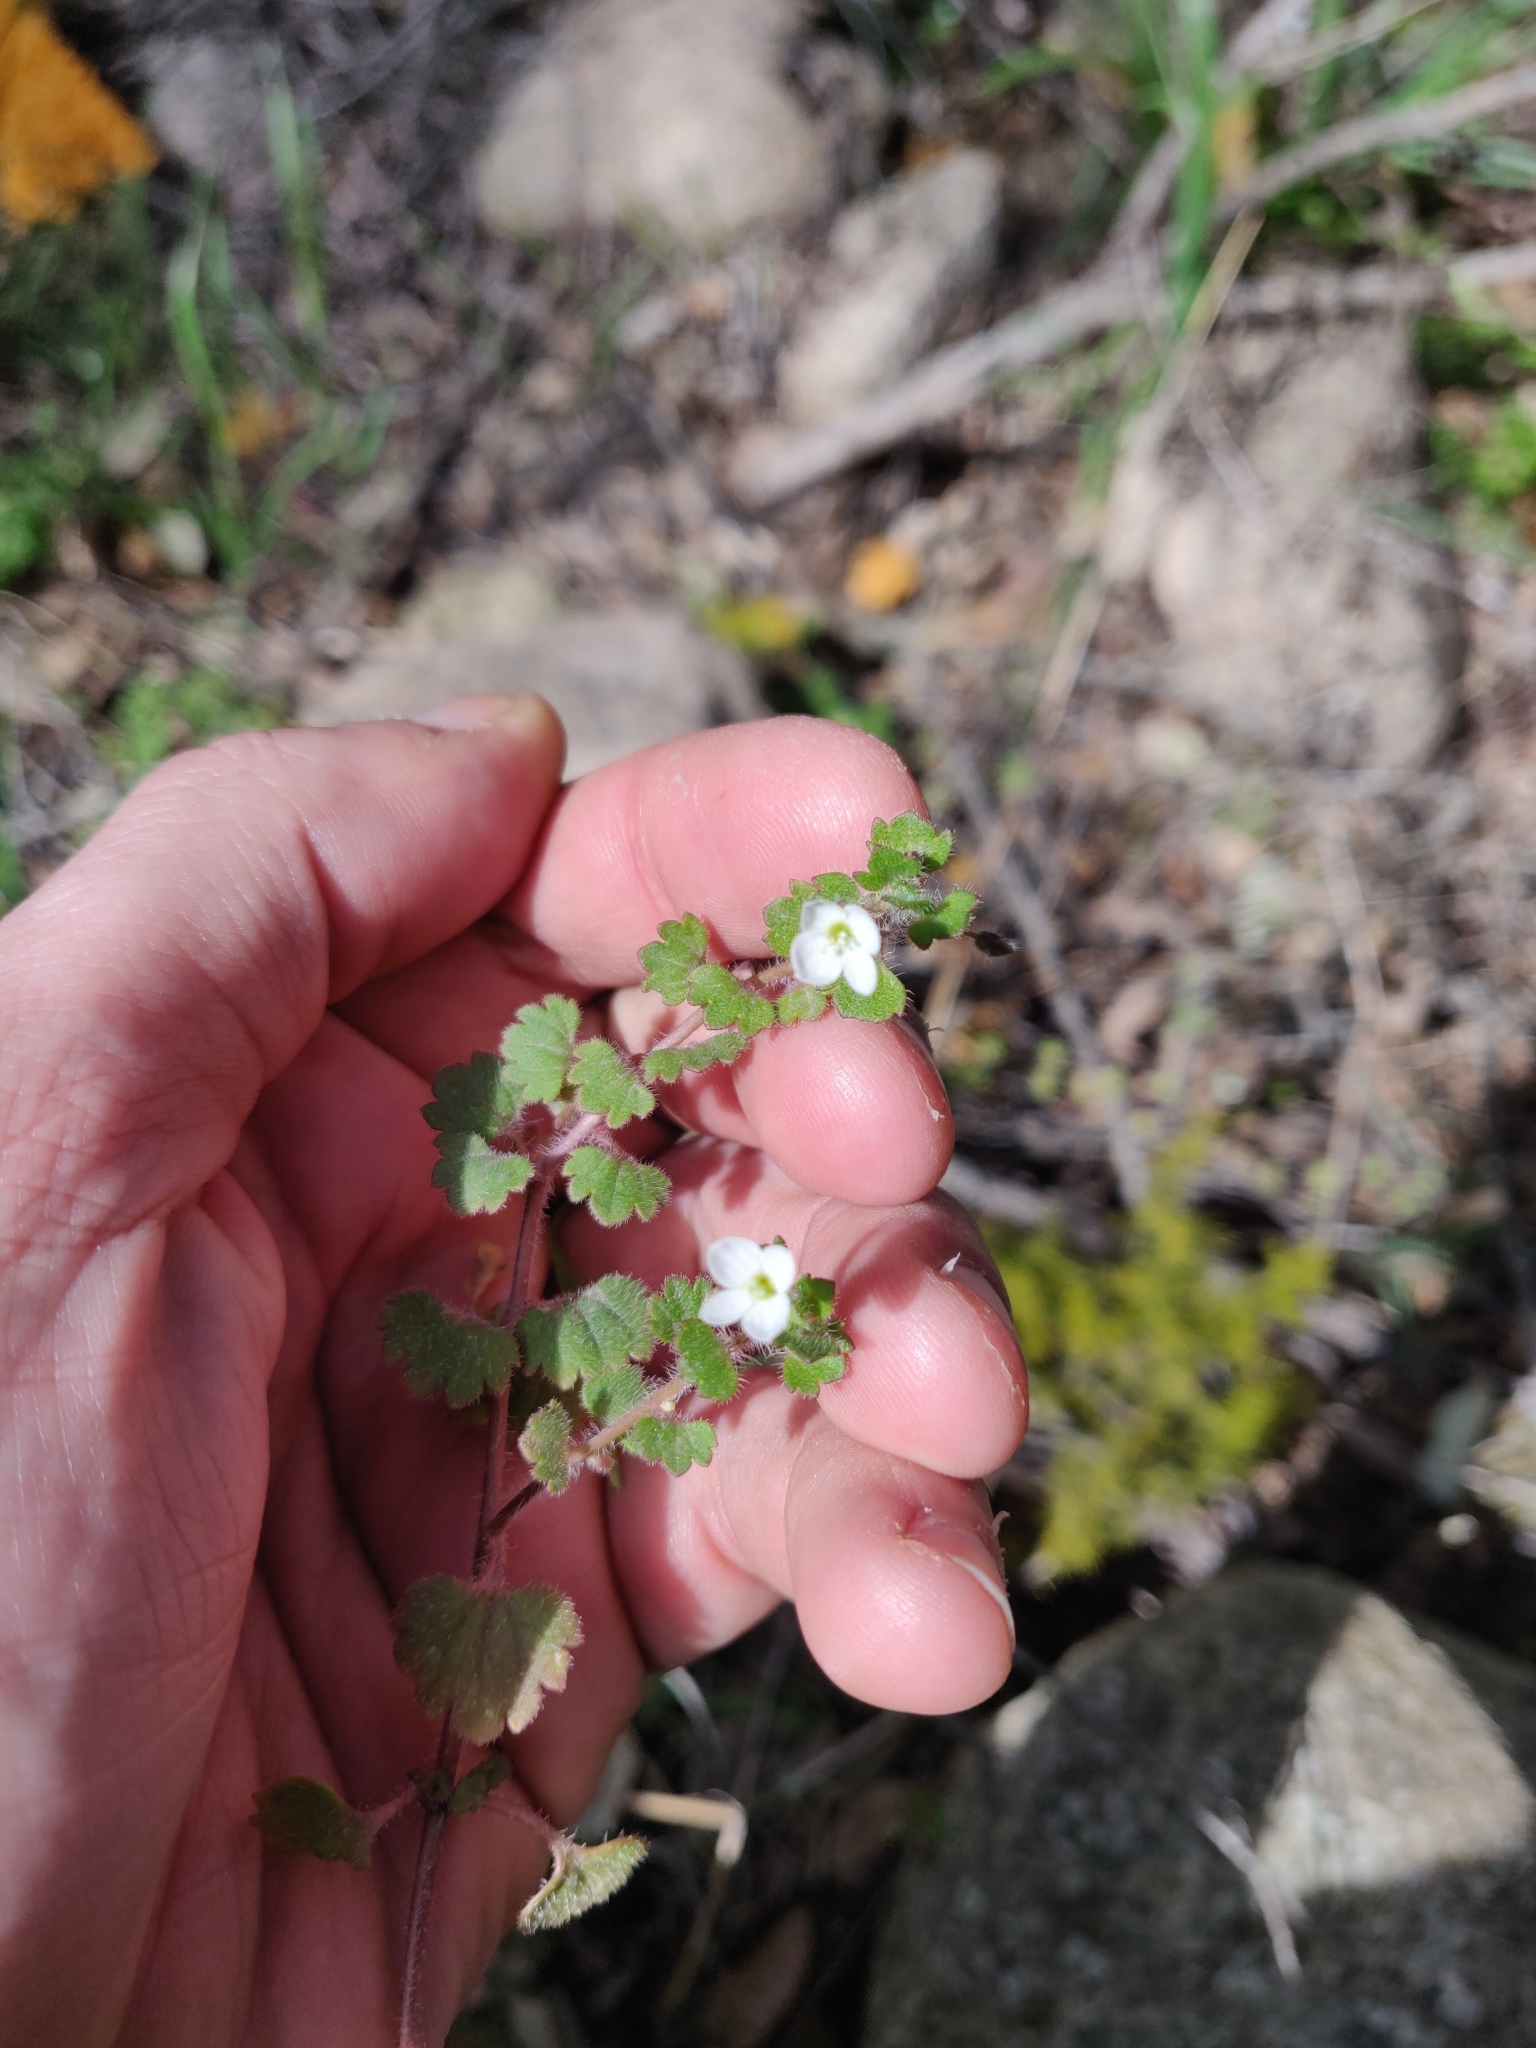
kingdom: Plantae
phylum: Tracheophyta
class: Magnoliopsida
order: Lamiales
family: Plantaginaceae
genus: Veronica
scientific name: Veronica cymbalaria
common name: Pale speedwell
